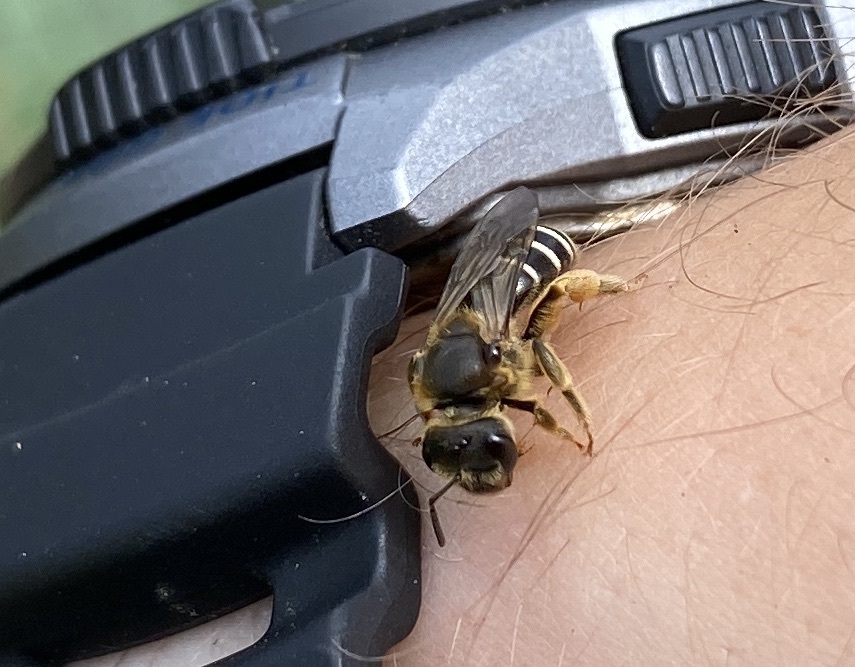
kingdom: Animalia
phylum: Arthropoda
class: Insecta
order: Hymenoptera
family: Halictidae
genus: Halictus
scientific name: Halictus rubicundus
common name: Orange-legged furrow bee
